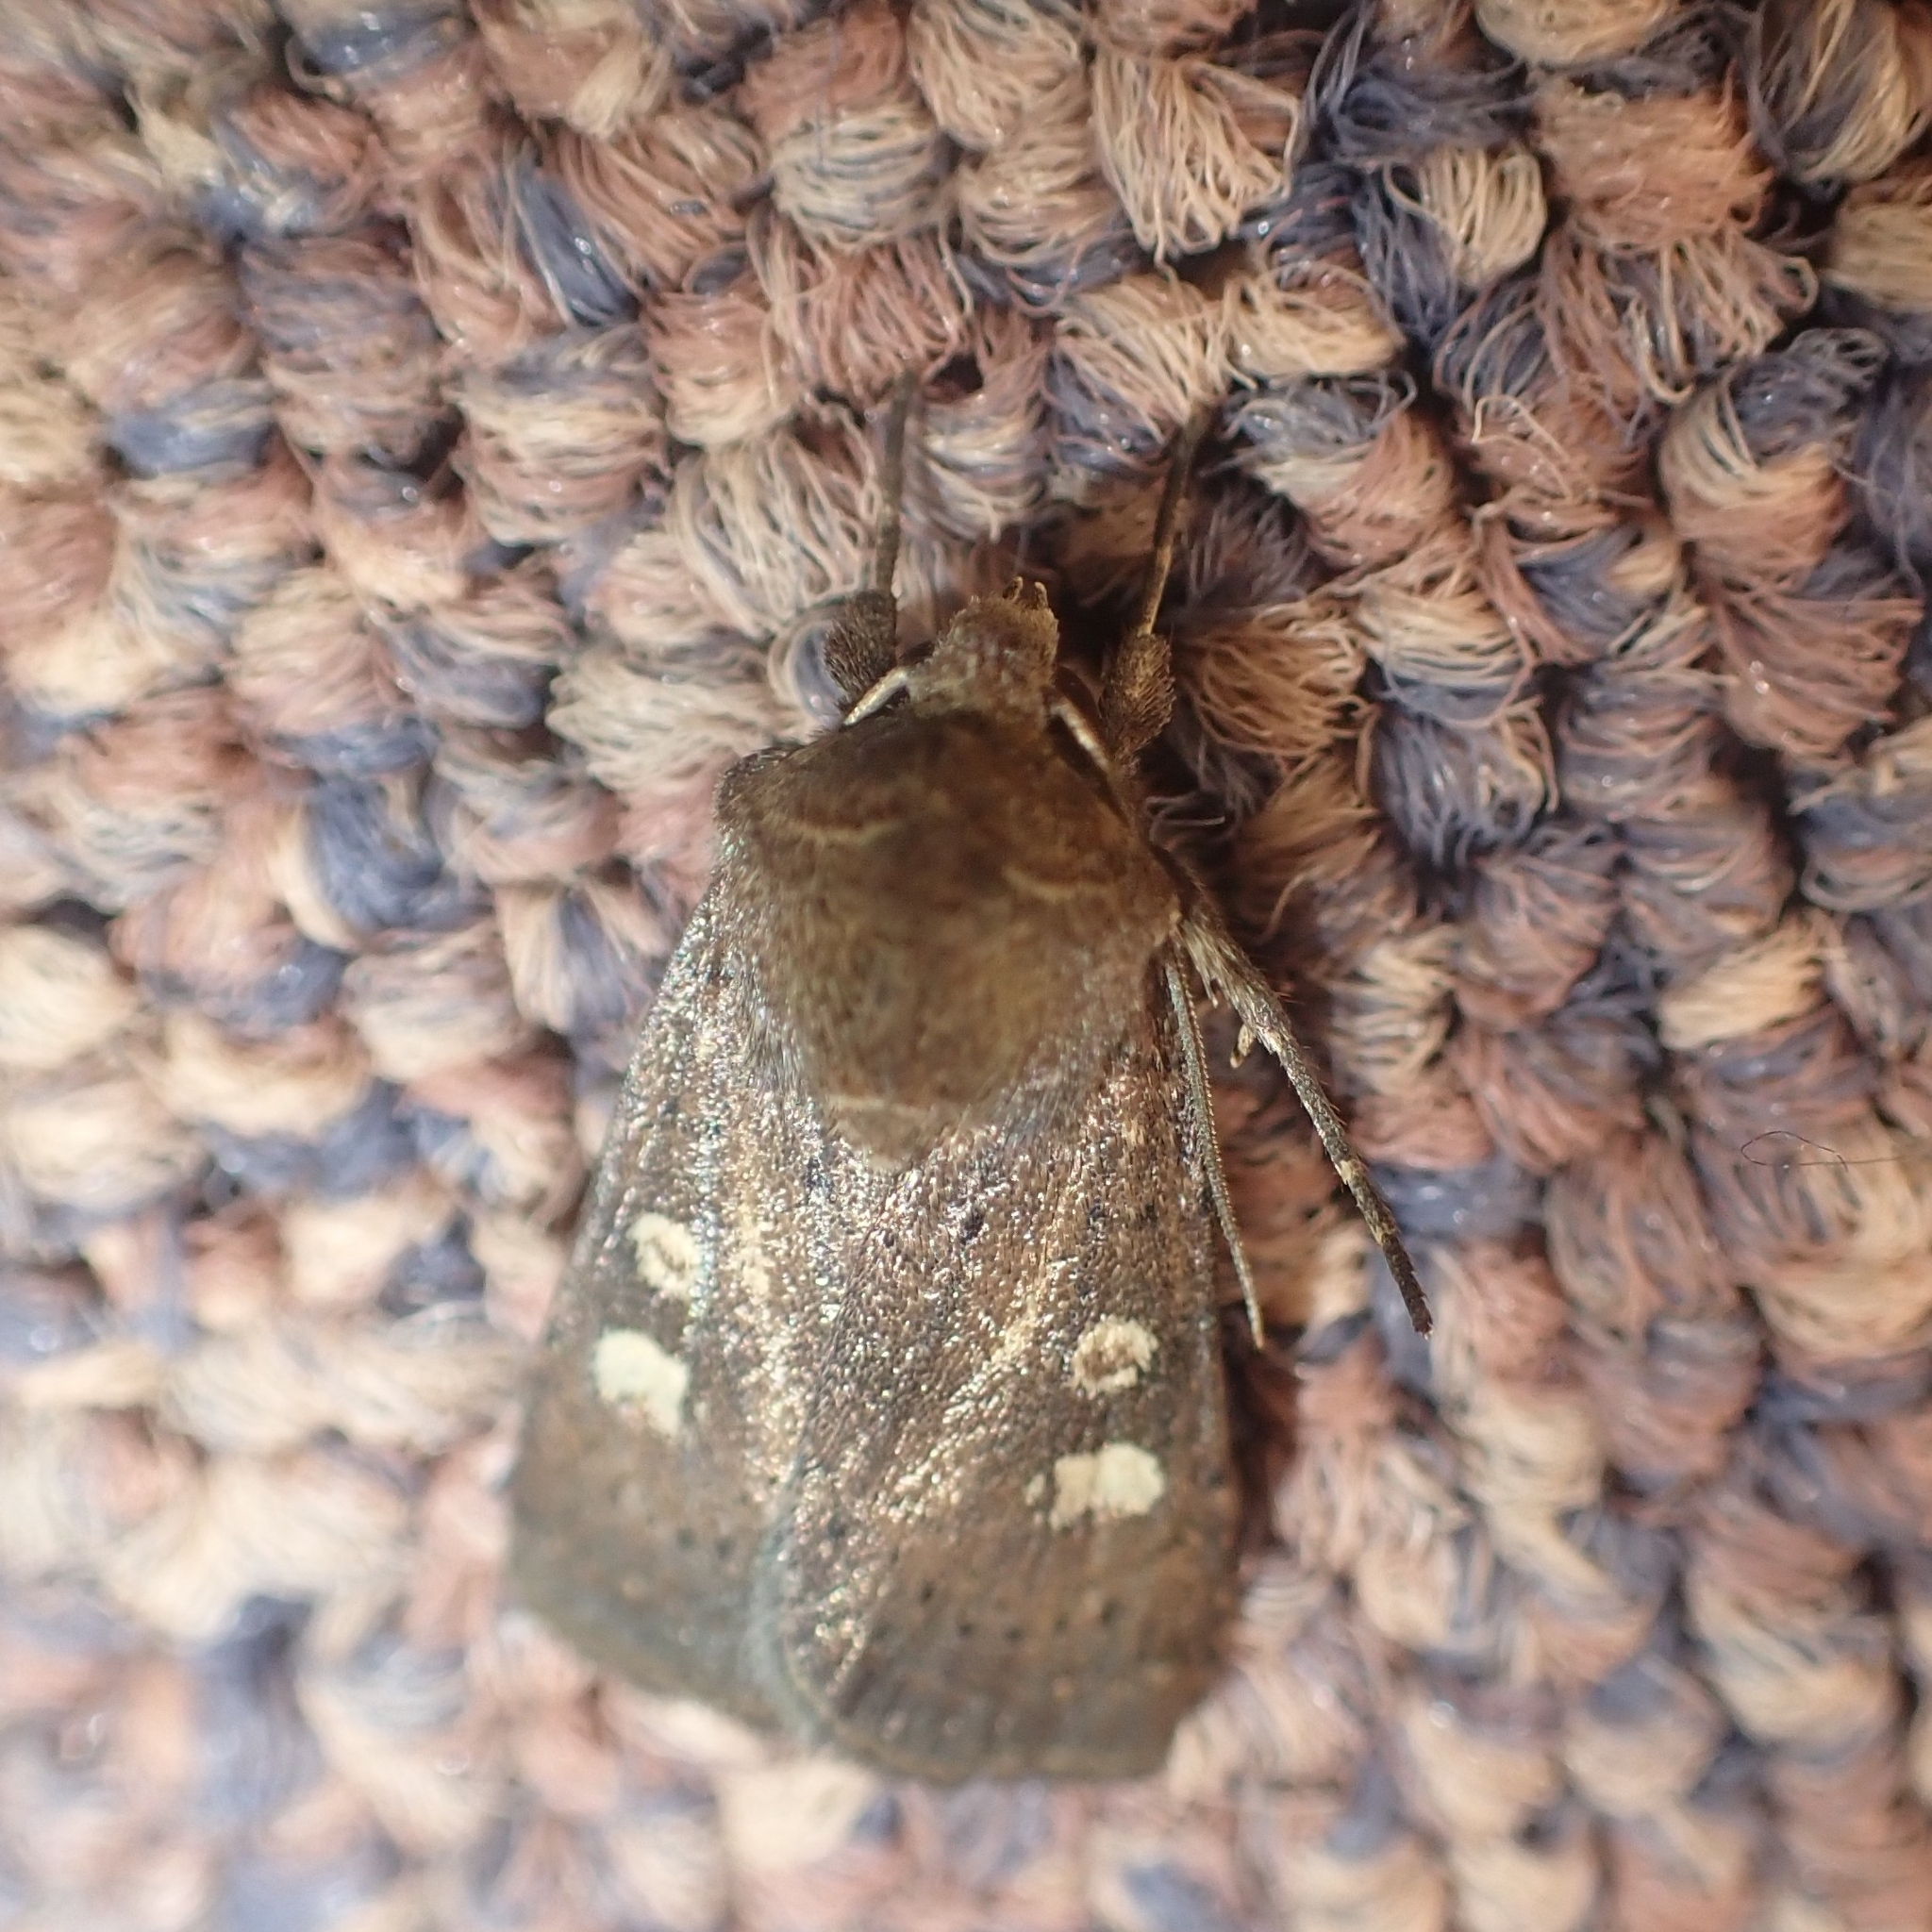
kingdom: Animalia
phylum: Arthropoda
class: Insecta
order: Lepidoptera
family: Noctuidae
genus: Xestia
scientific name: Xestia xanthographa
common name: Square-spot rustic
